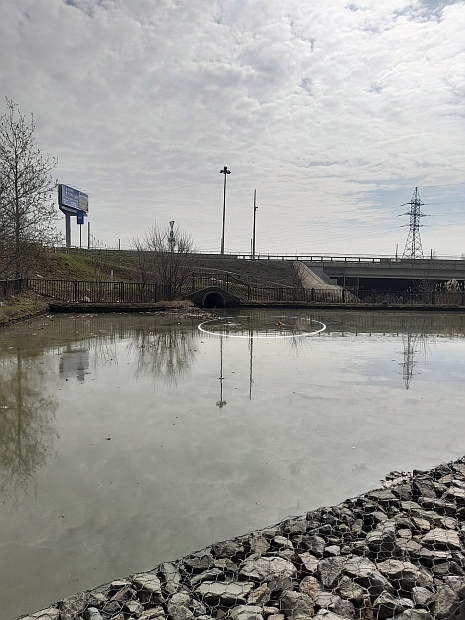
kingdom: Animalia
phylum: Chordata
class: Aves
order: Anseriformes
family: Anatidae
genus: Tadorna
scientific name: Tadorna ferruginea
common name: Ruddy shelduck
